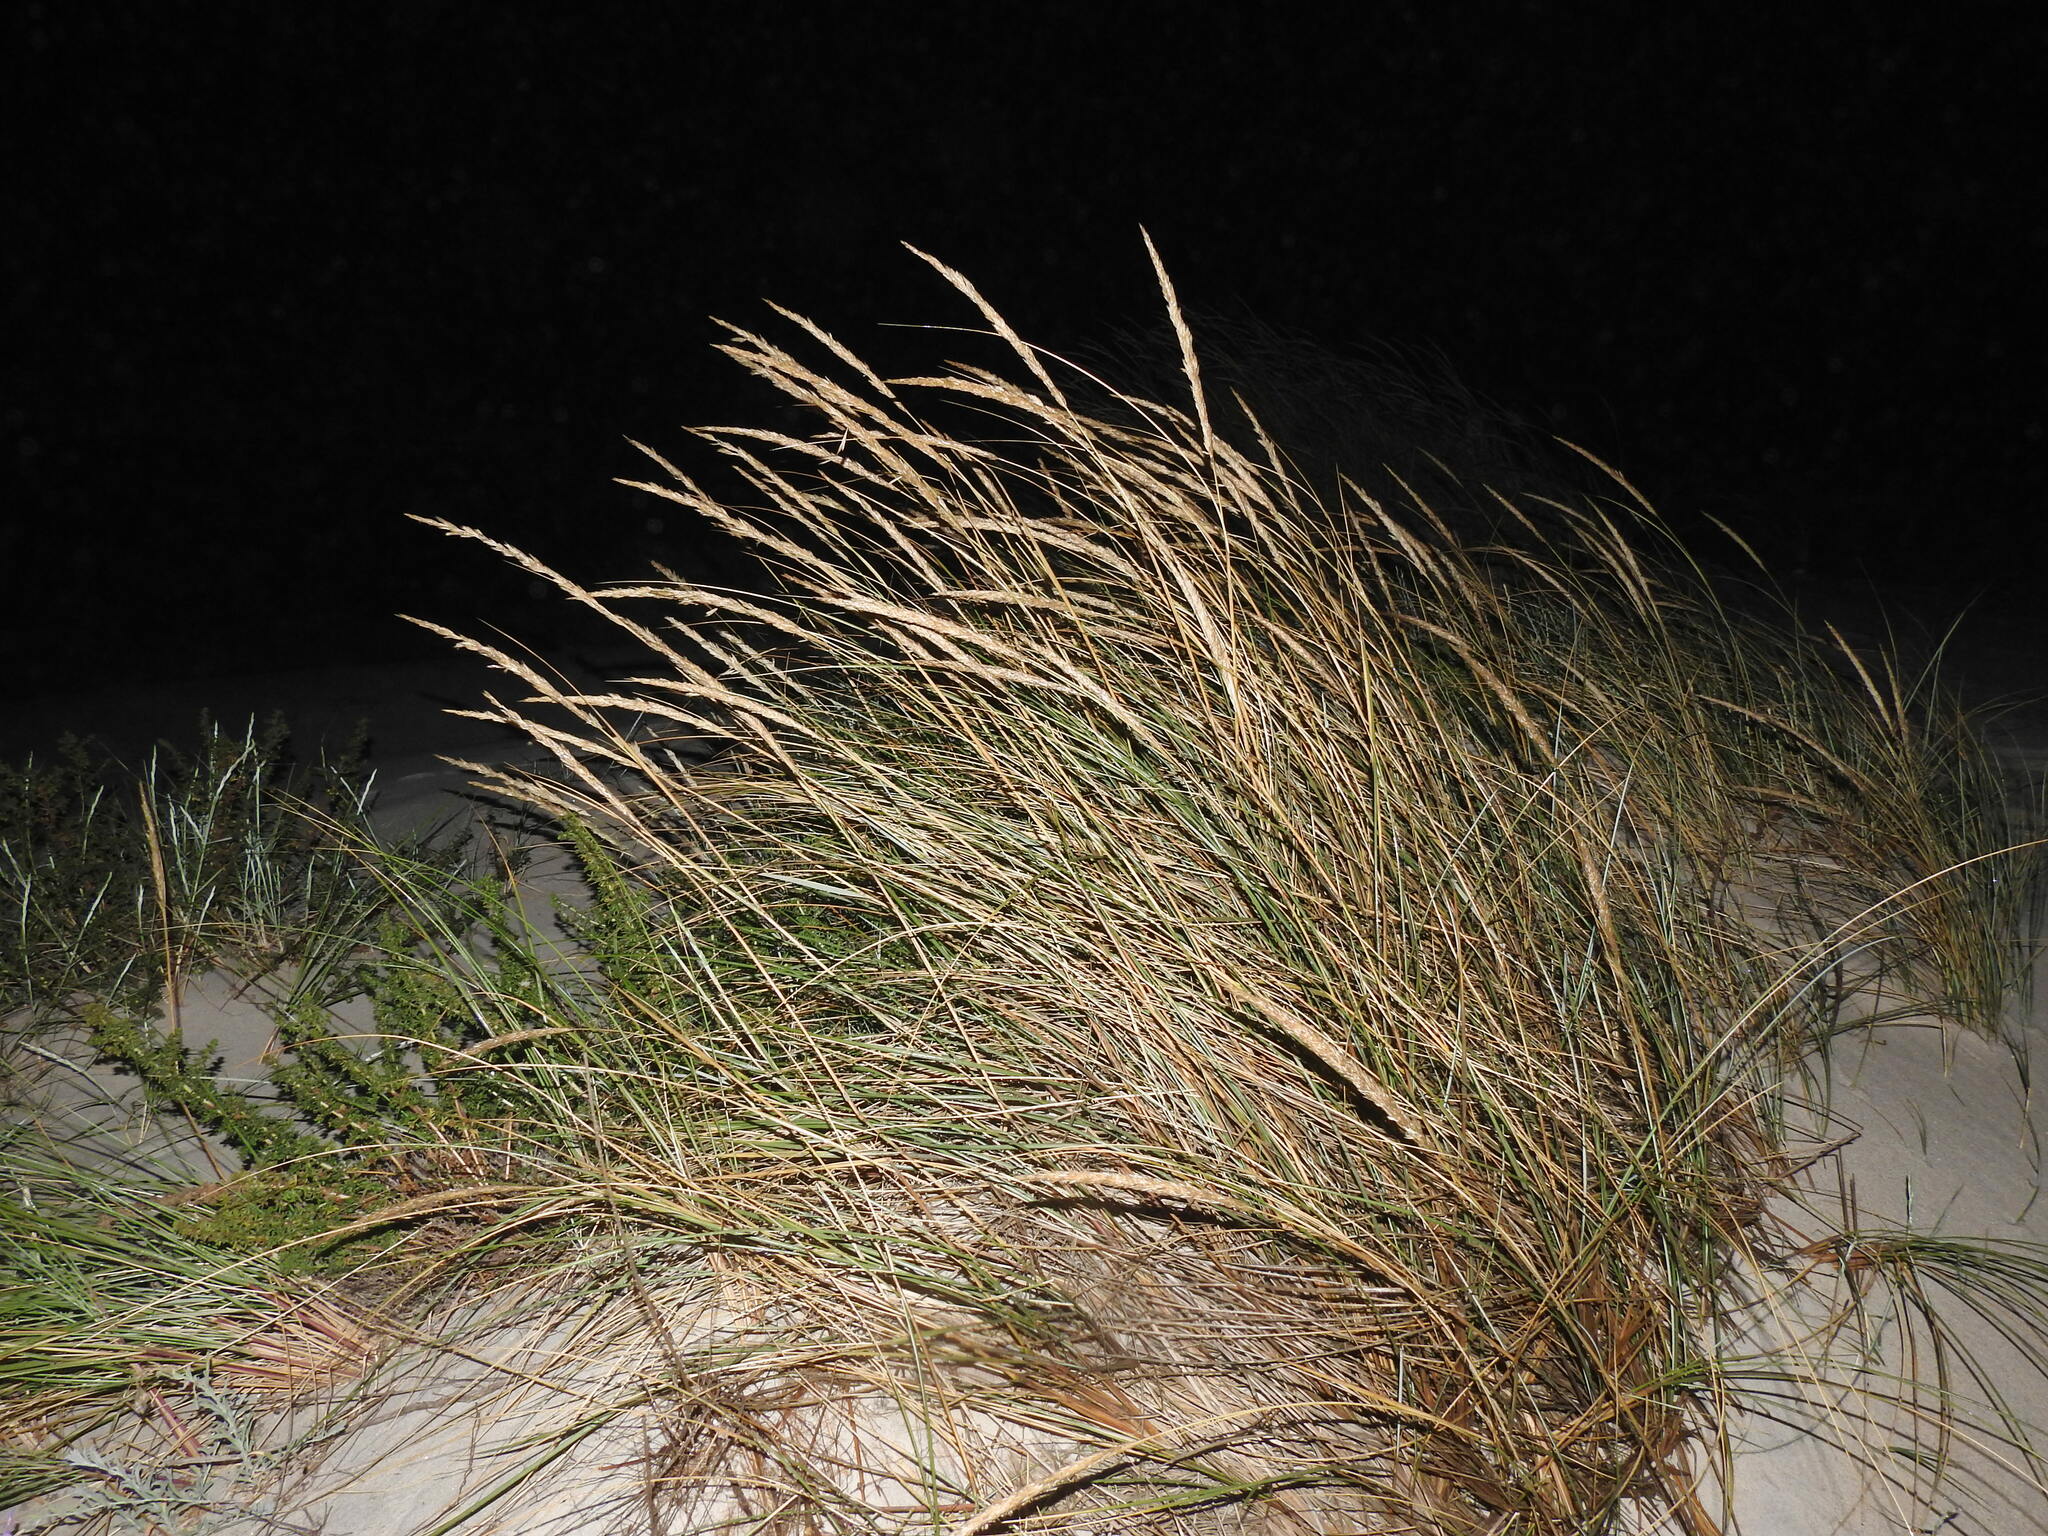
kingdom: Plantae
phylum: Tracheophyta
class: Liliopsida
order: Poales
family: Poaceae
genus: Calamagrostis
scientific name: Calamagrostis arenaria
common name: European beachgrass
